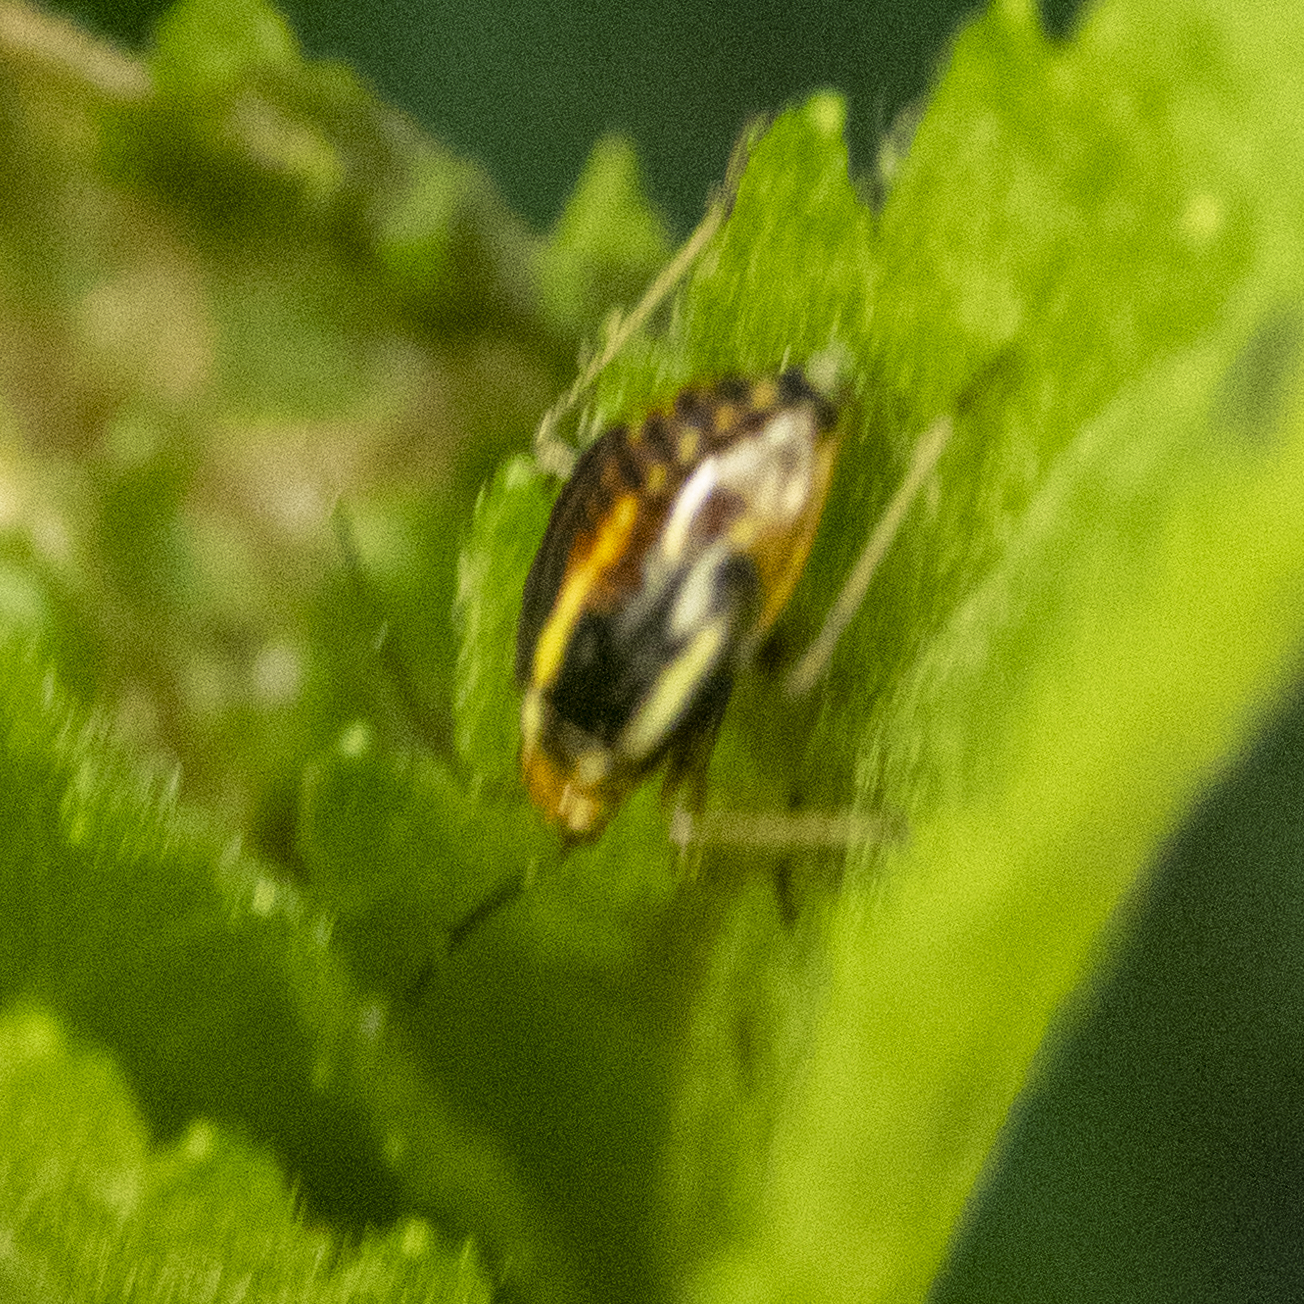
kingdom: Animalia
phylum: Arthropoda
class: Insecta
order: Hemiptera
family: Miridae
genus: Poecilocapsus
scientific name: Poecilocapsus lineatus
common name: Four-lined plant bug
